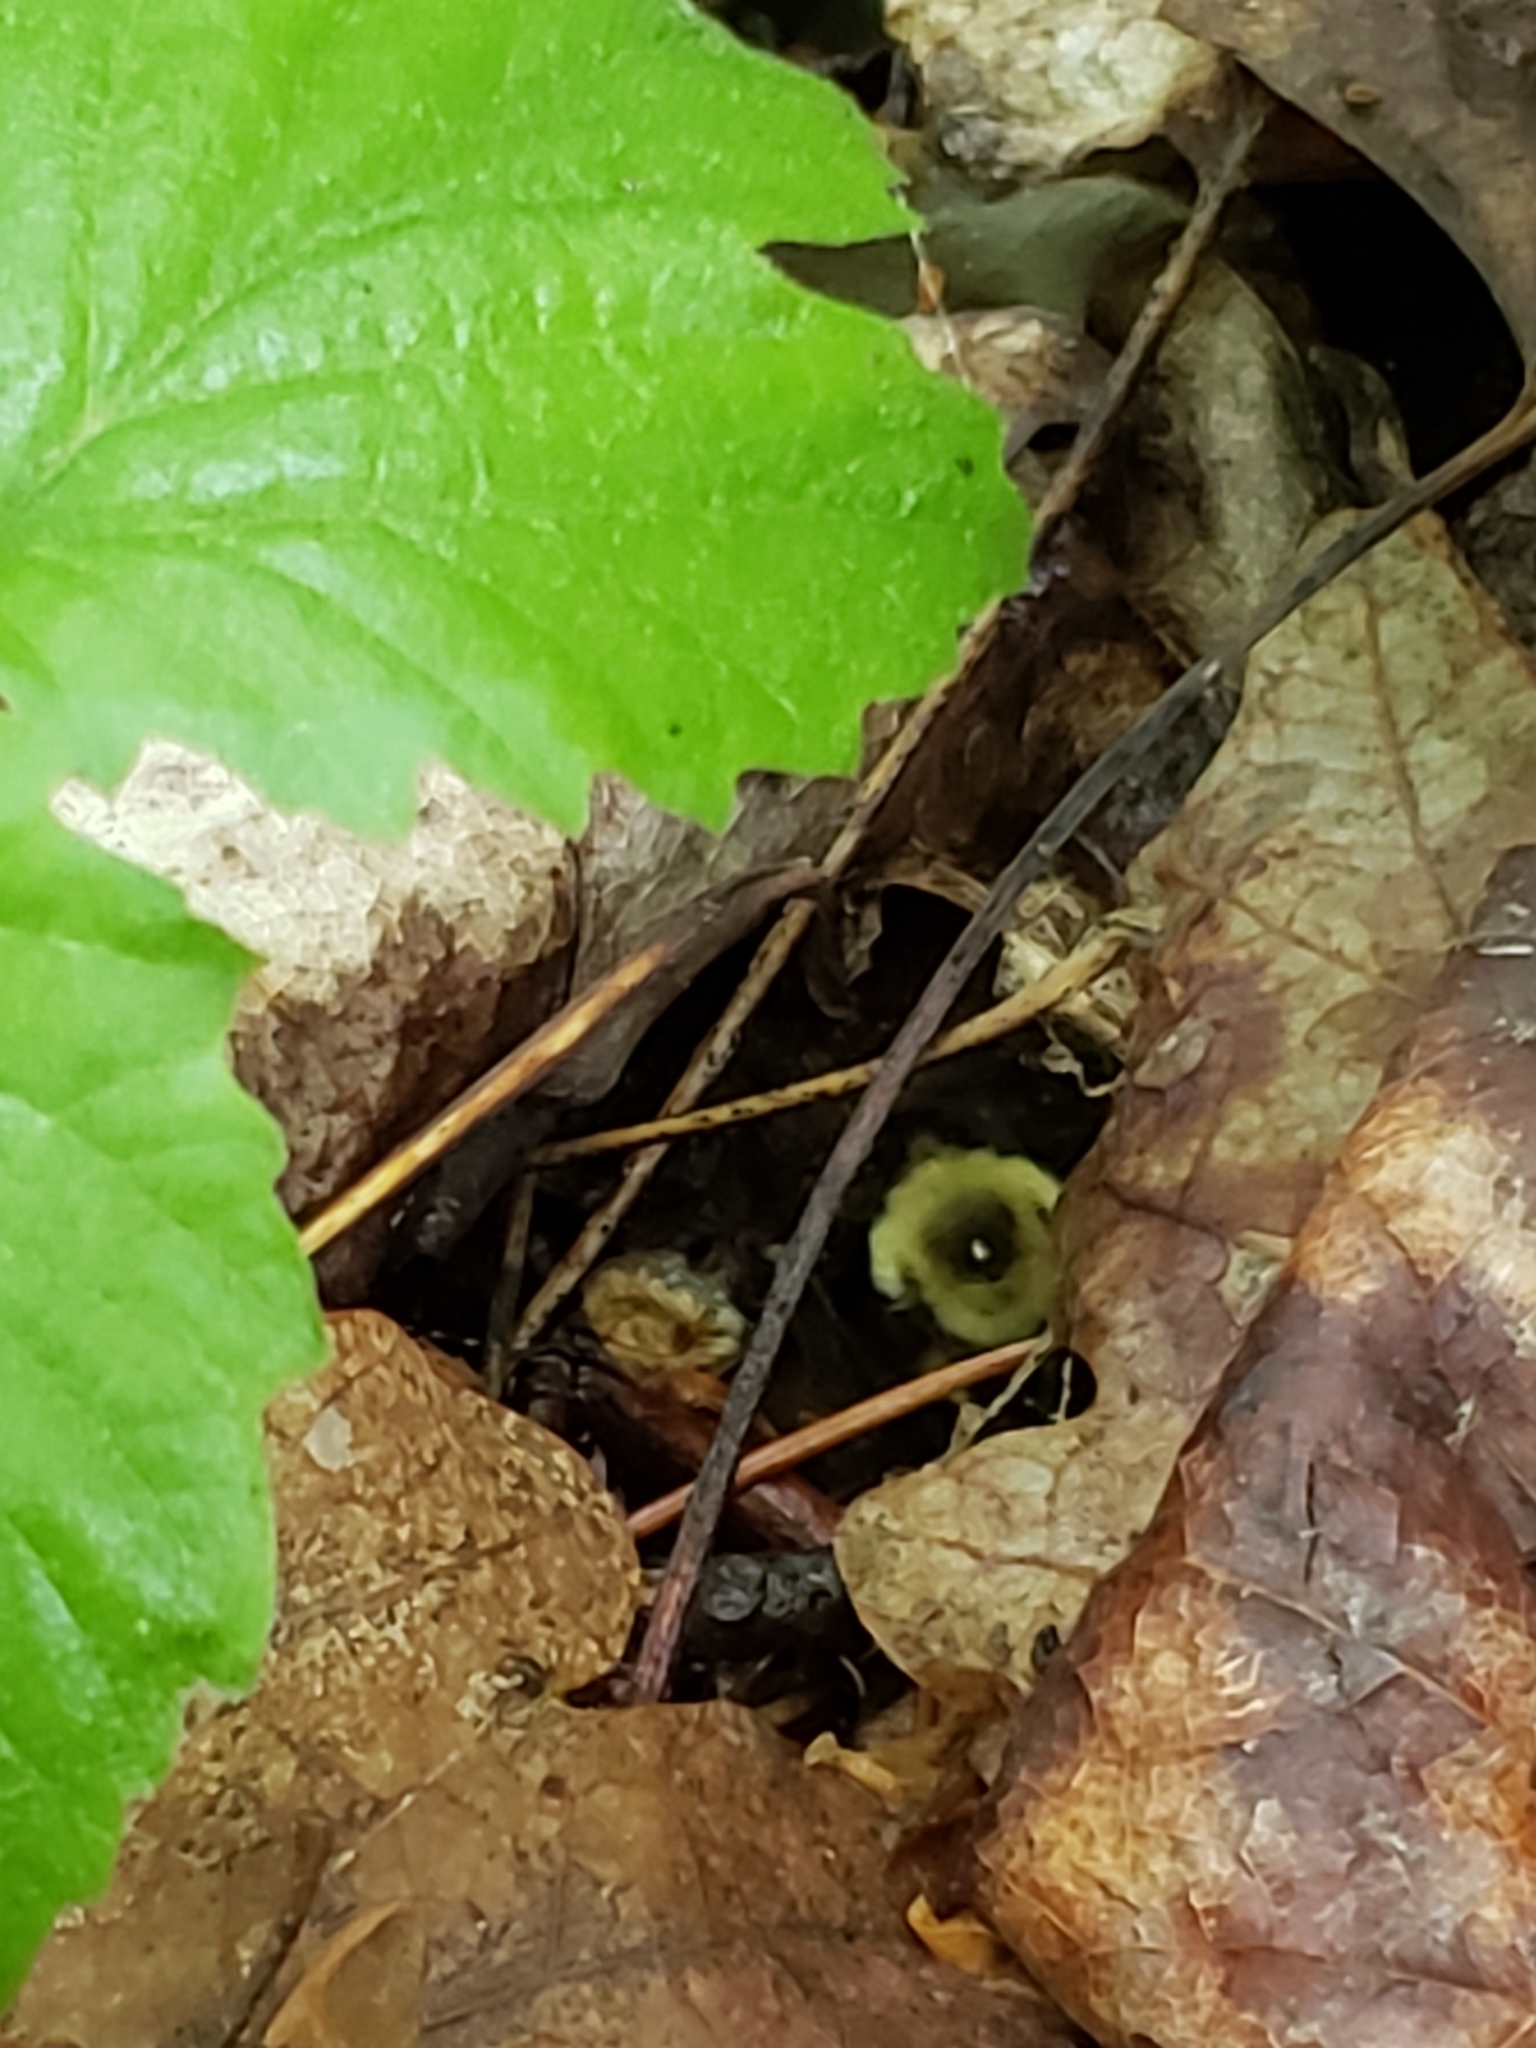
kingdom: Animalia
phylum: Arthropoda
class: Insecta
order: Hymenoptera
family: Apidae
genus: Bombus
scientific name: Bombus bimaculatus
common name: Two-spotted bumble bee
